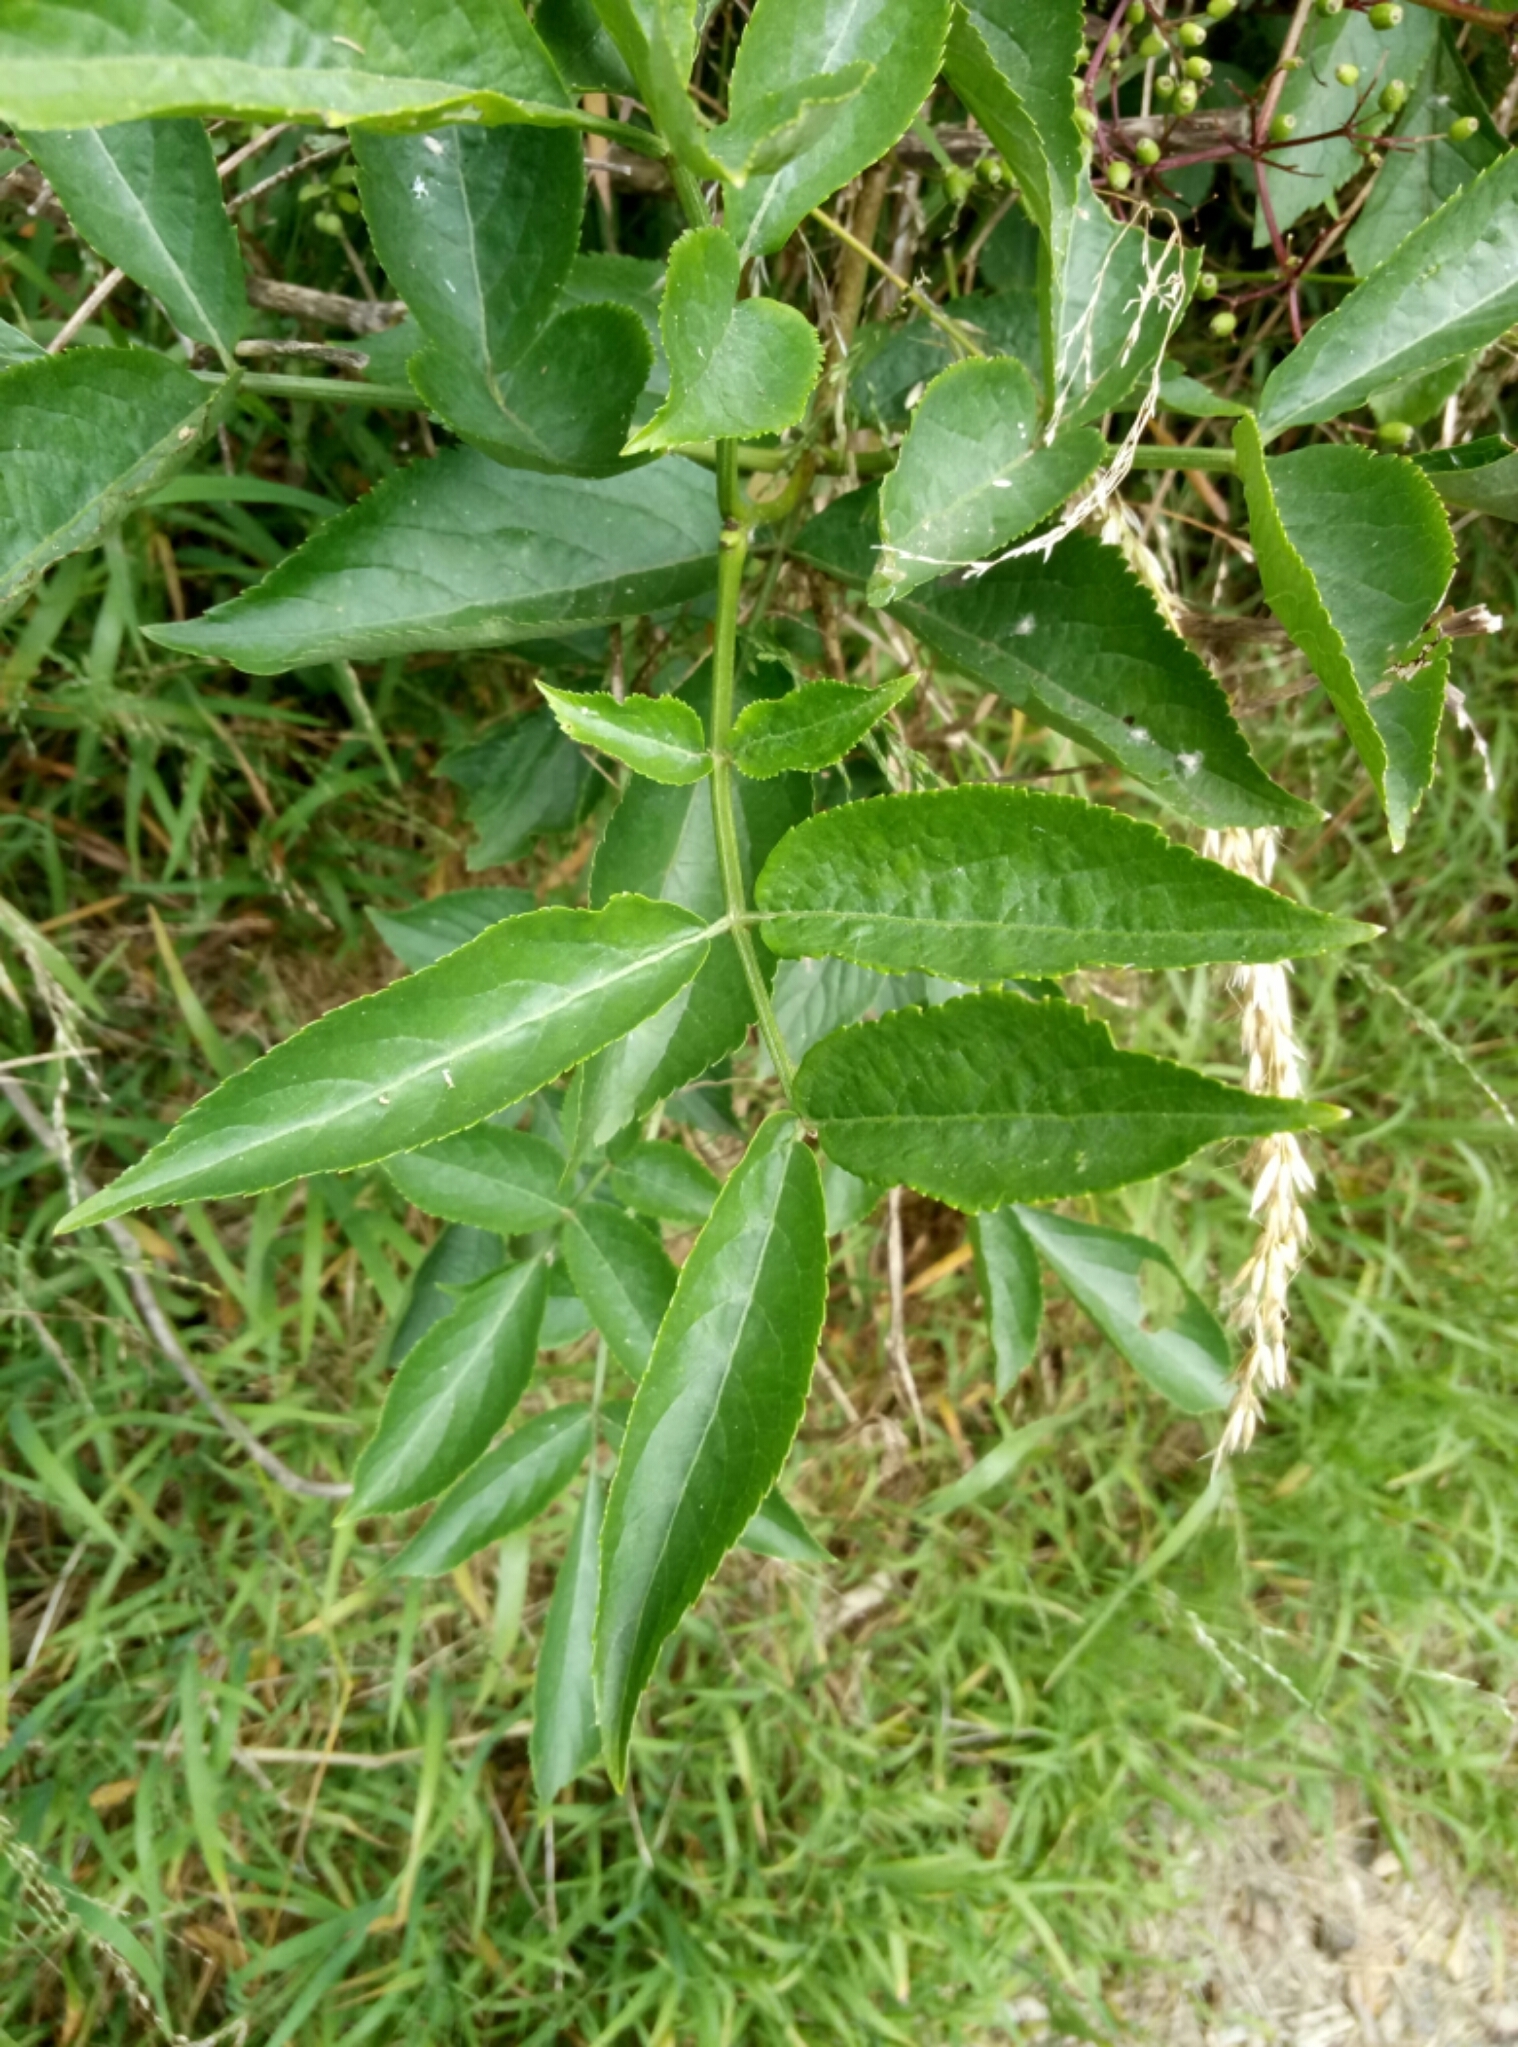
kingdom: Plantae
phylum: Tracheophyta
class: Magnoliopsida
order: Dipsacales
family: Viburnaceae
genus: Sambucus
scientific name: Sambucus nigra
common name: Elder
